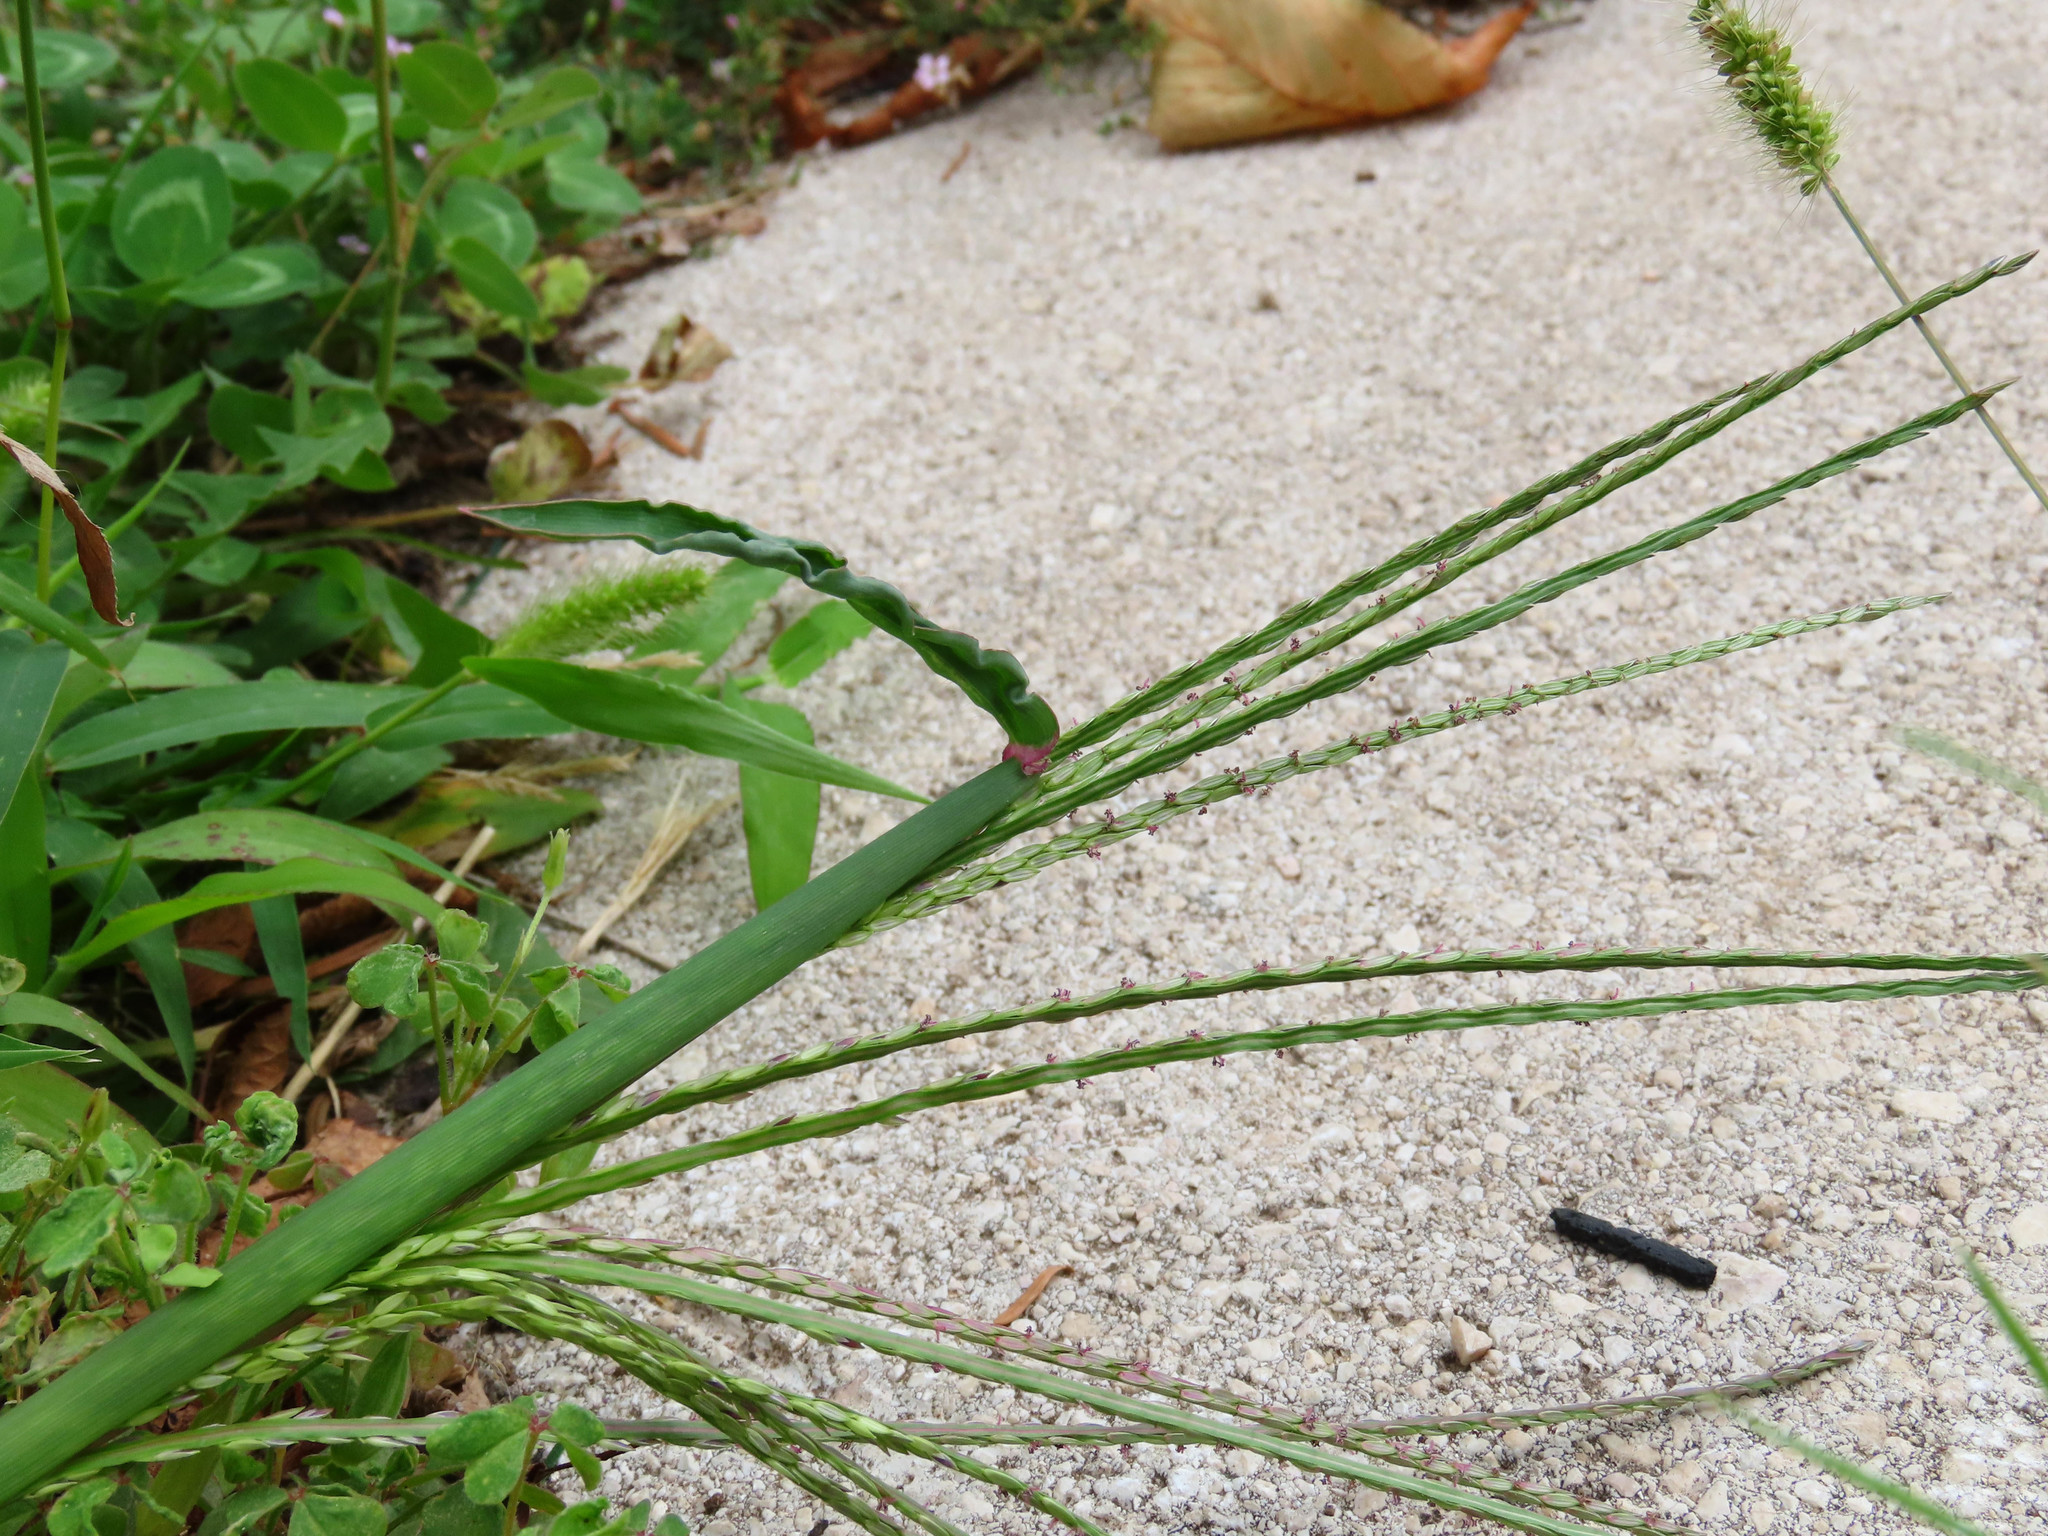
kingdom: Plantae
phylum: Tracheophyta
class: Liliopsida
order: Poales
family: Poaceae
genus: Digitaria
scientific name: Digitaria sanguinalis
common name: Hairy crabgrass
